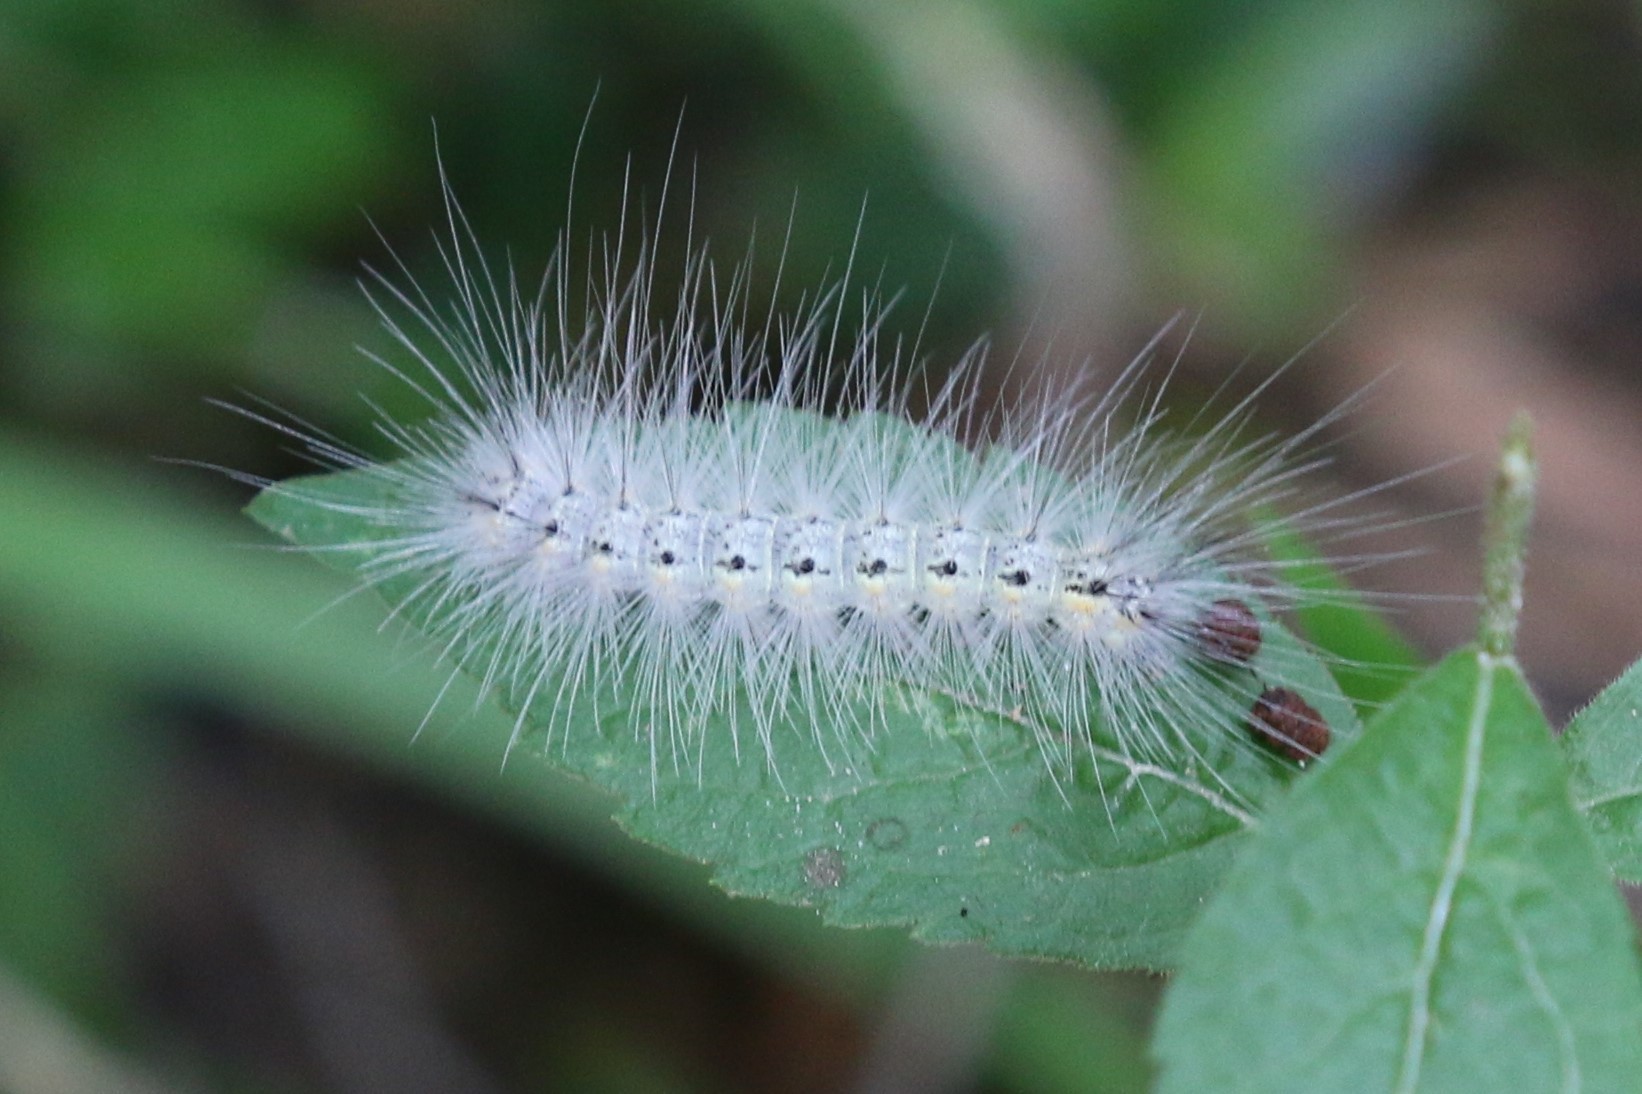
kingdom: Animalia
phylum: Arthropoda
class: Insecta
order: Lepidoptera
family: Erebidae
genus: Hyphantria
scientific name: Hyphantria cunea
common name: American white moth
